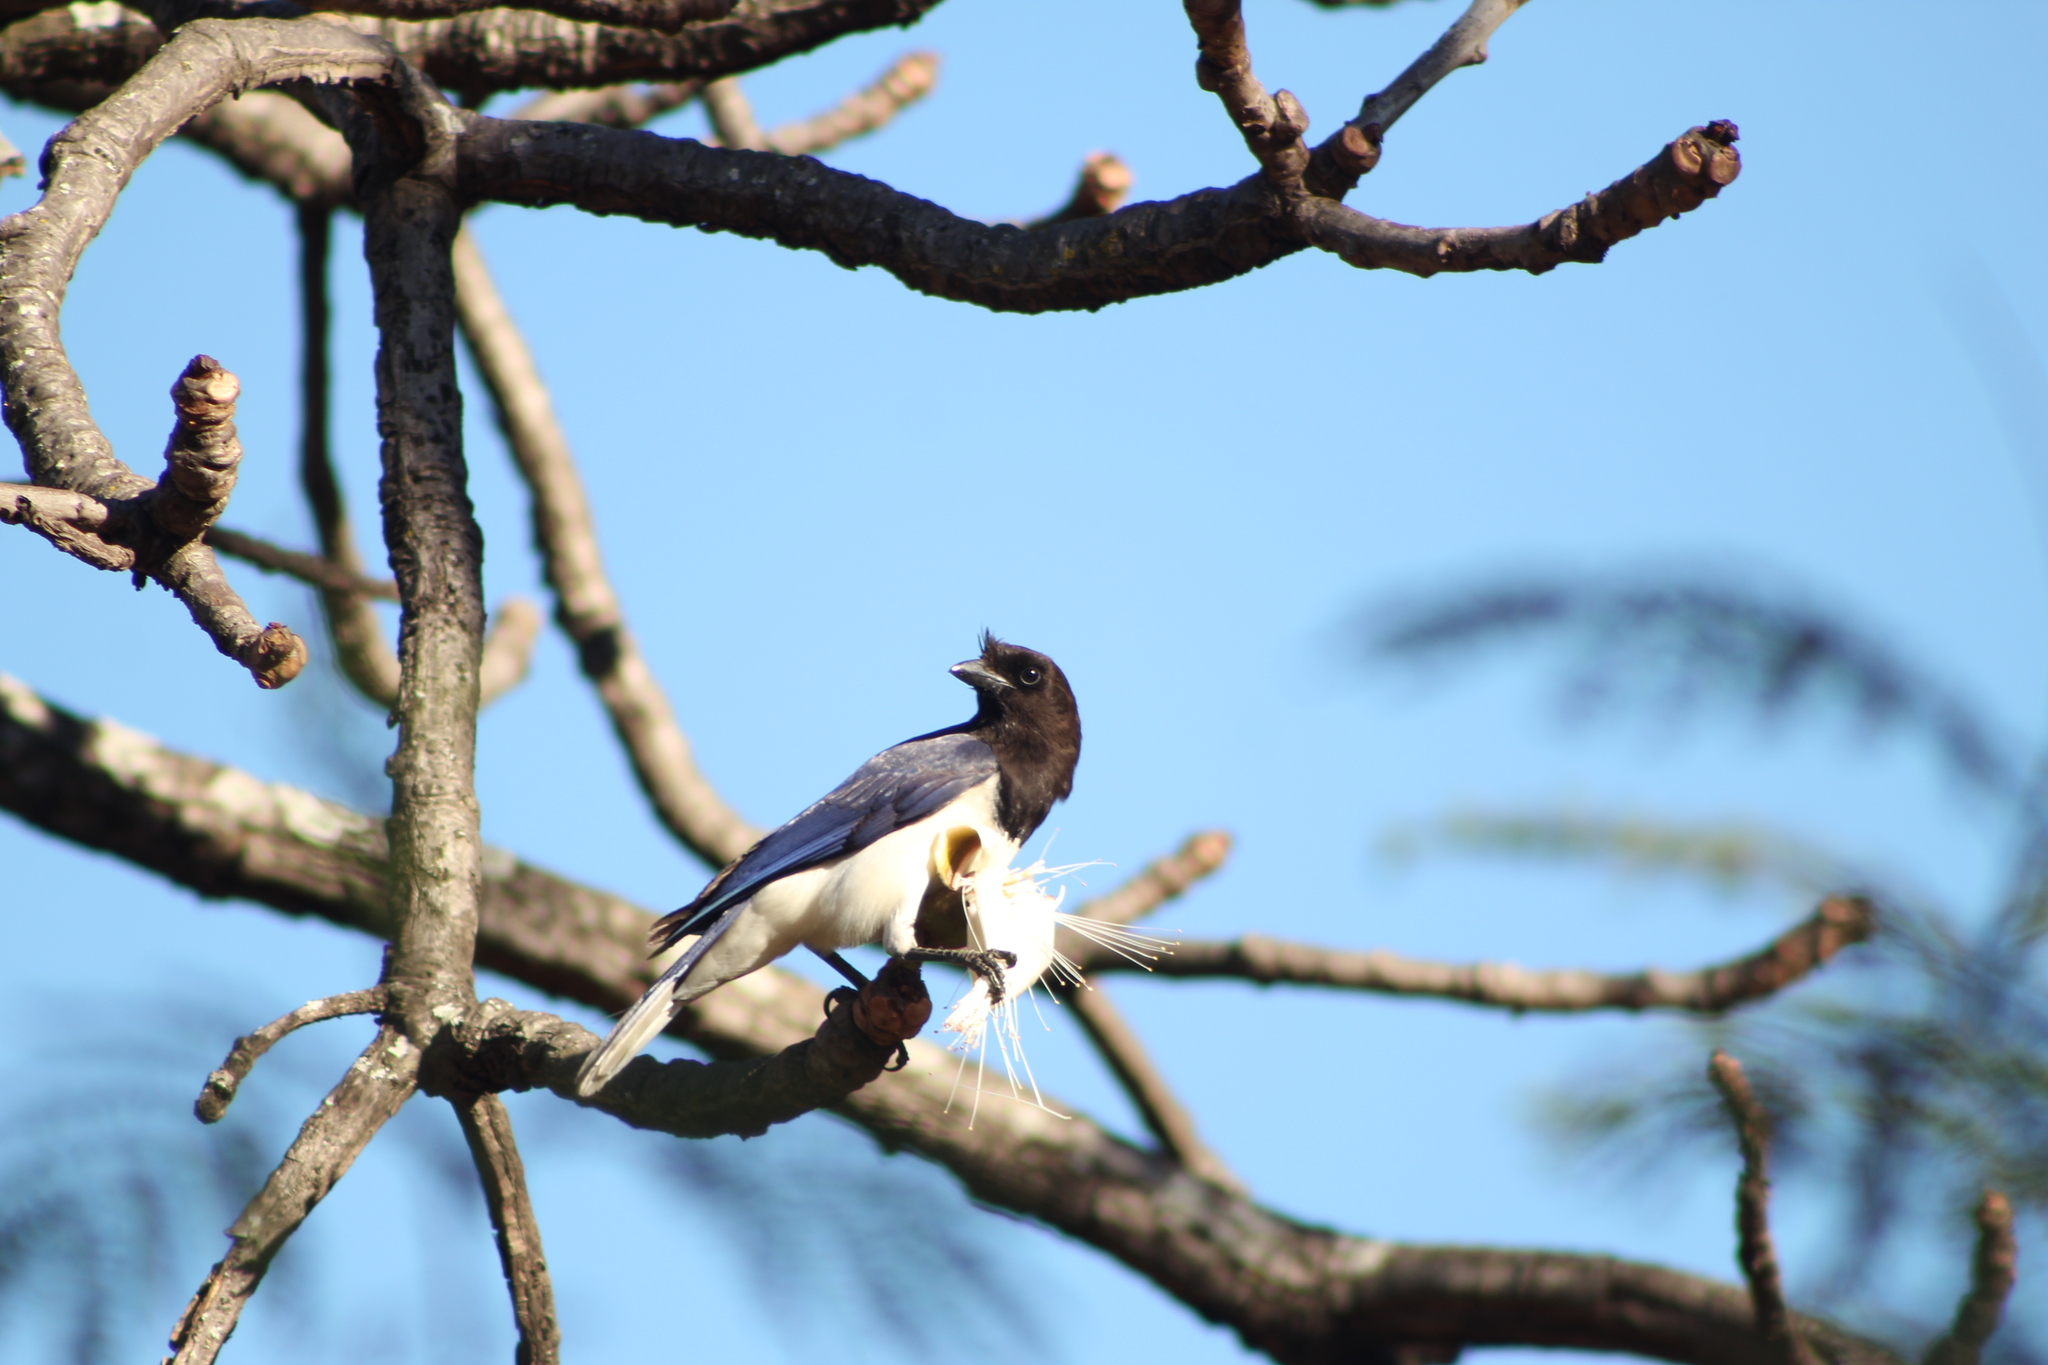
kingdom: Animalia
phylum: Chordata
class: Aves
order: Passeriformes
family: Corvidae
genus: Cyanocorax
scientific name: Cyanocorax cristatellus
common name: Curl-crested jay
